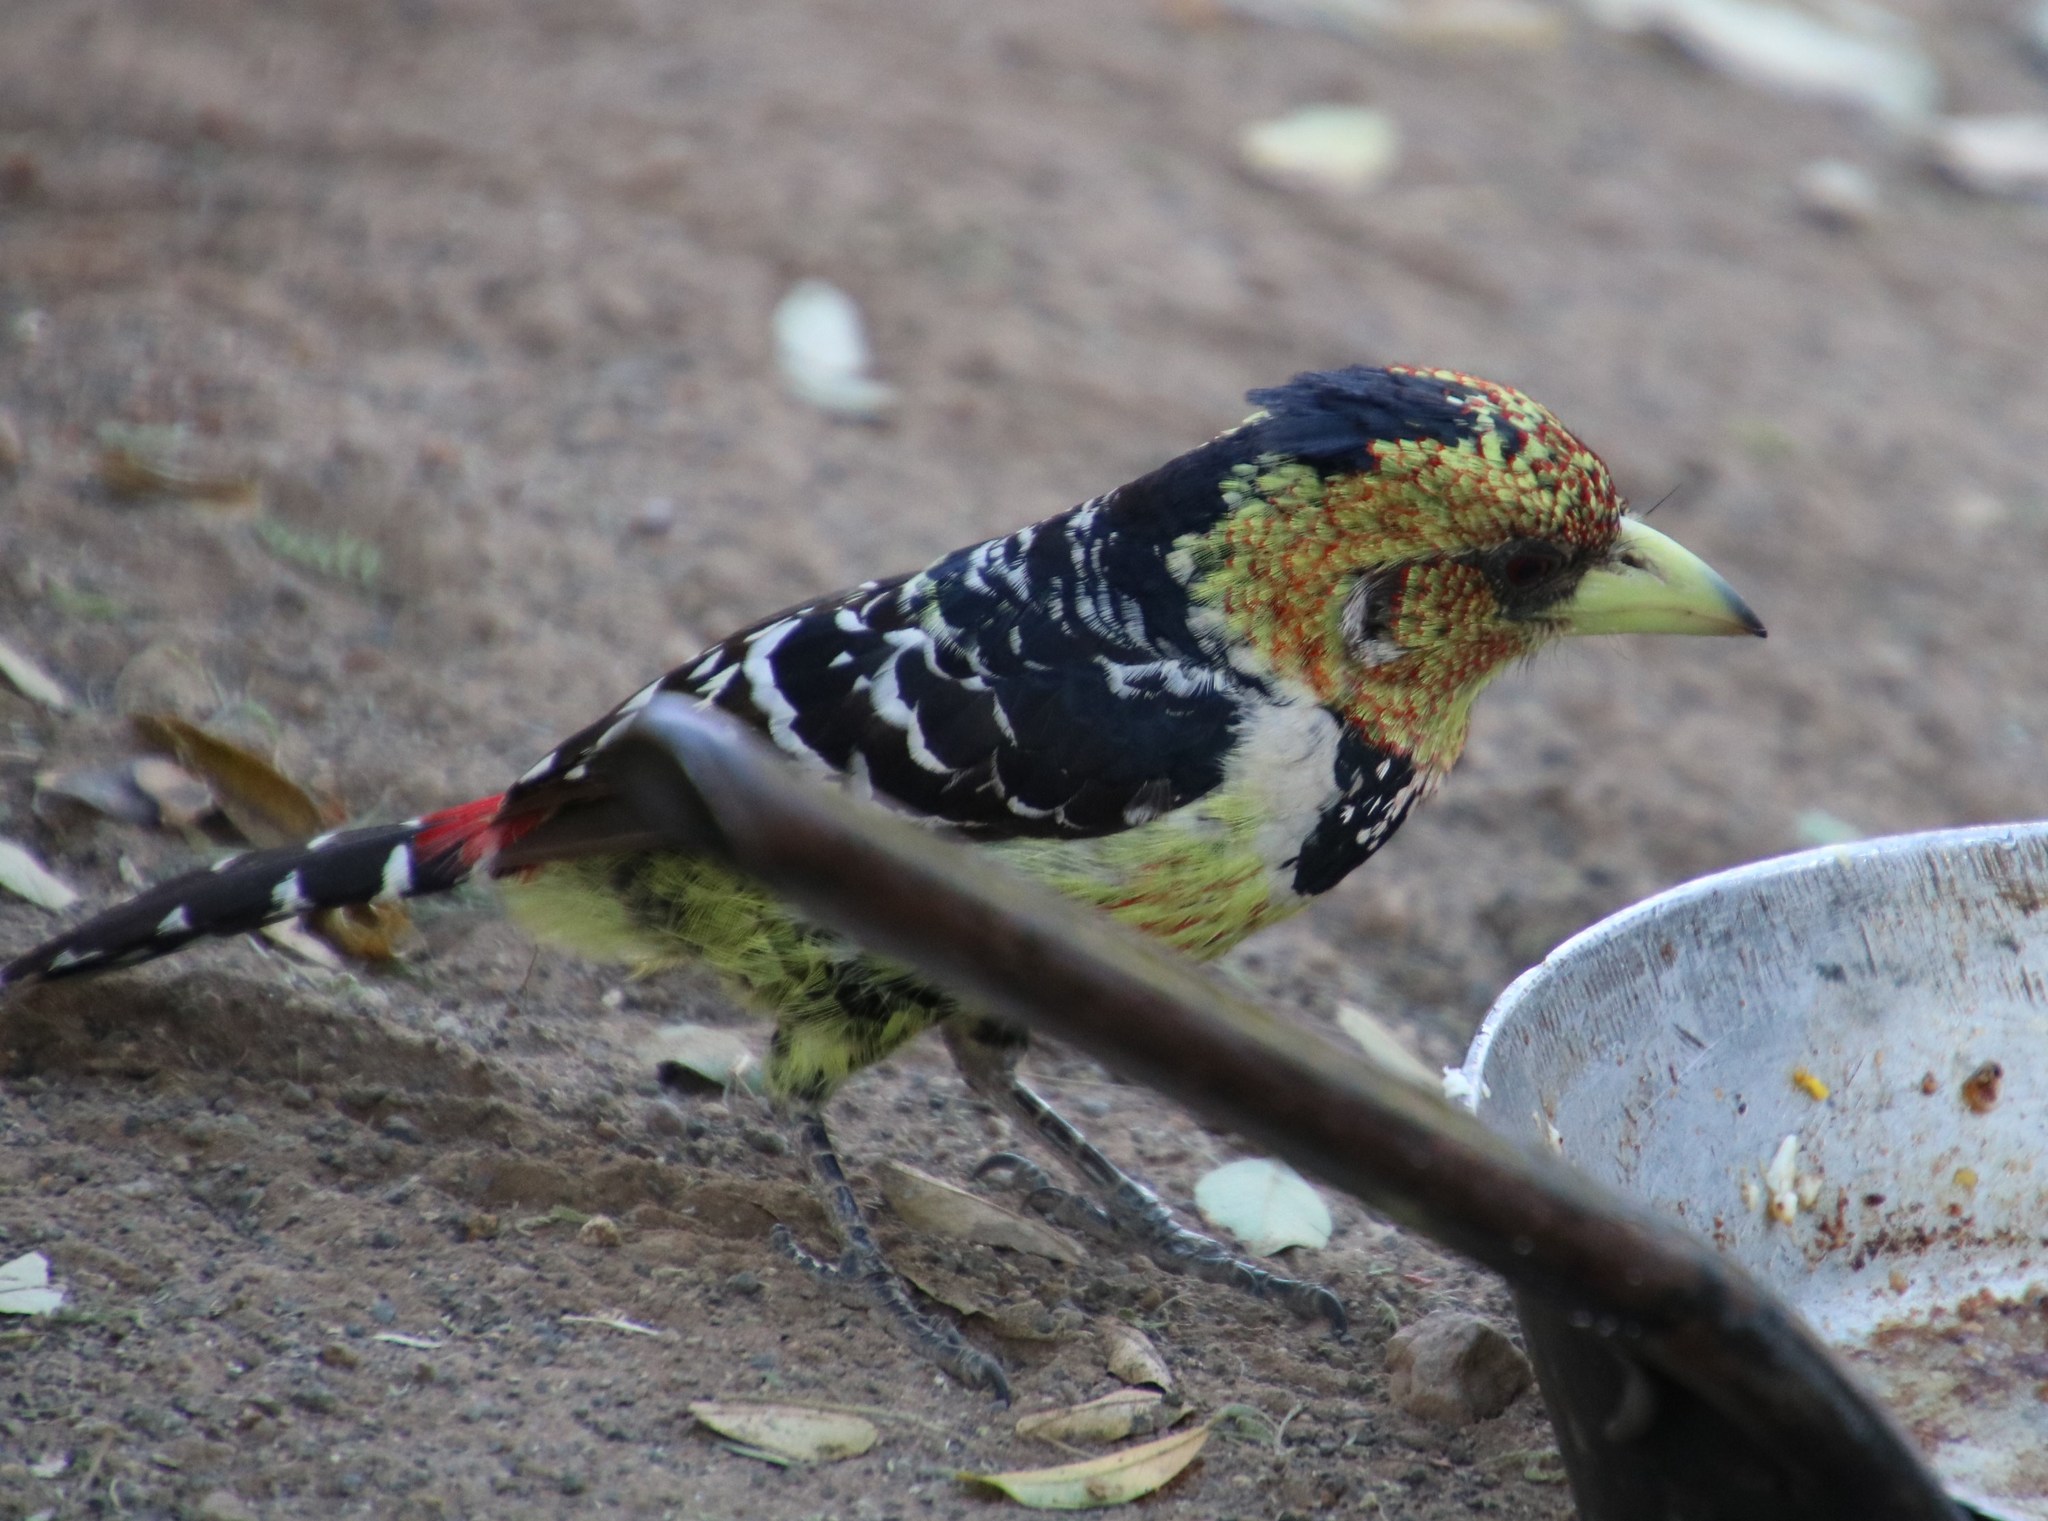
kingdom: Animalia
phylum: Chordata
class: Aves
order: Piciformes
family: Lybiidae
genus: Trachyphonus
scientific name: Trachyphonus vaillantii
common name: Crested barbet
